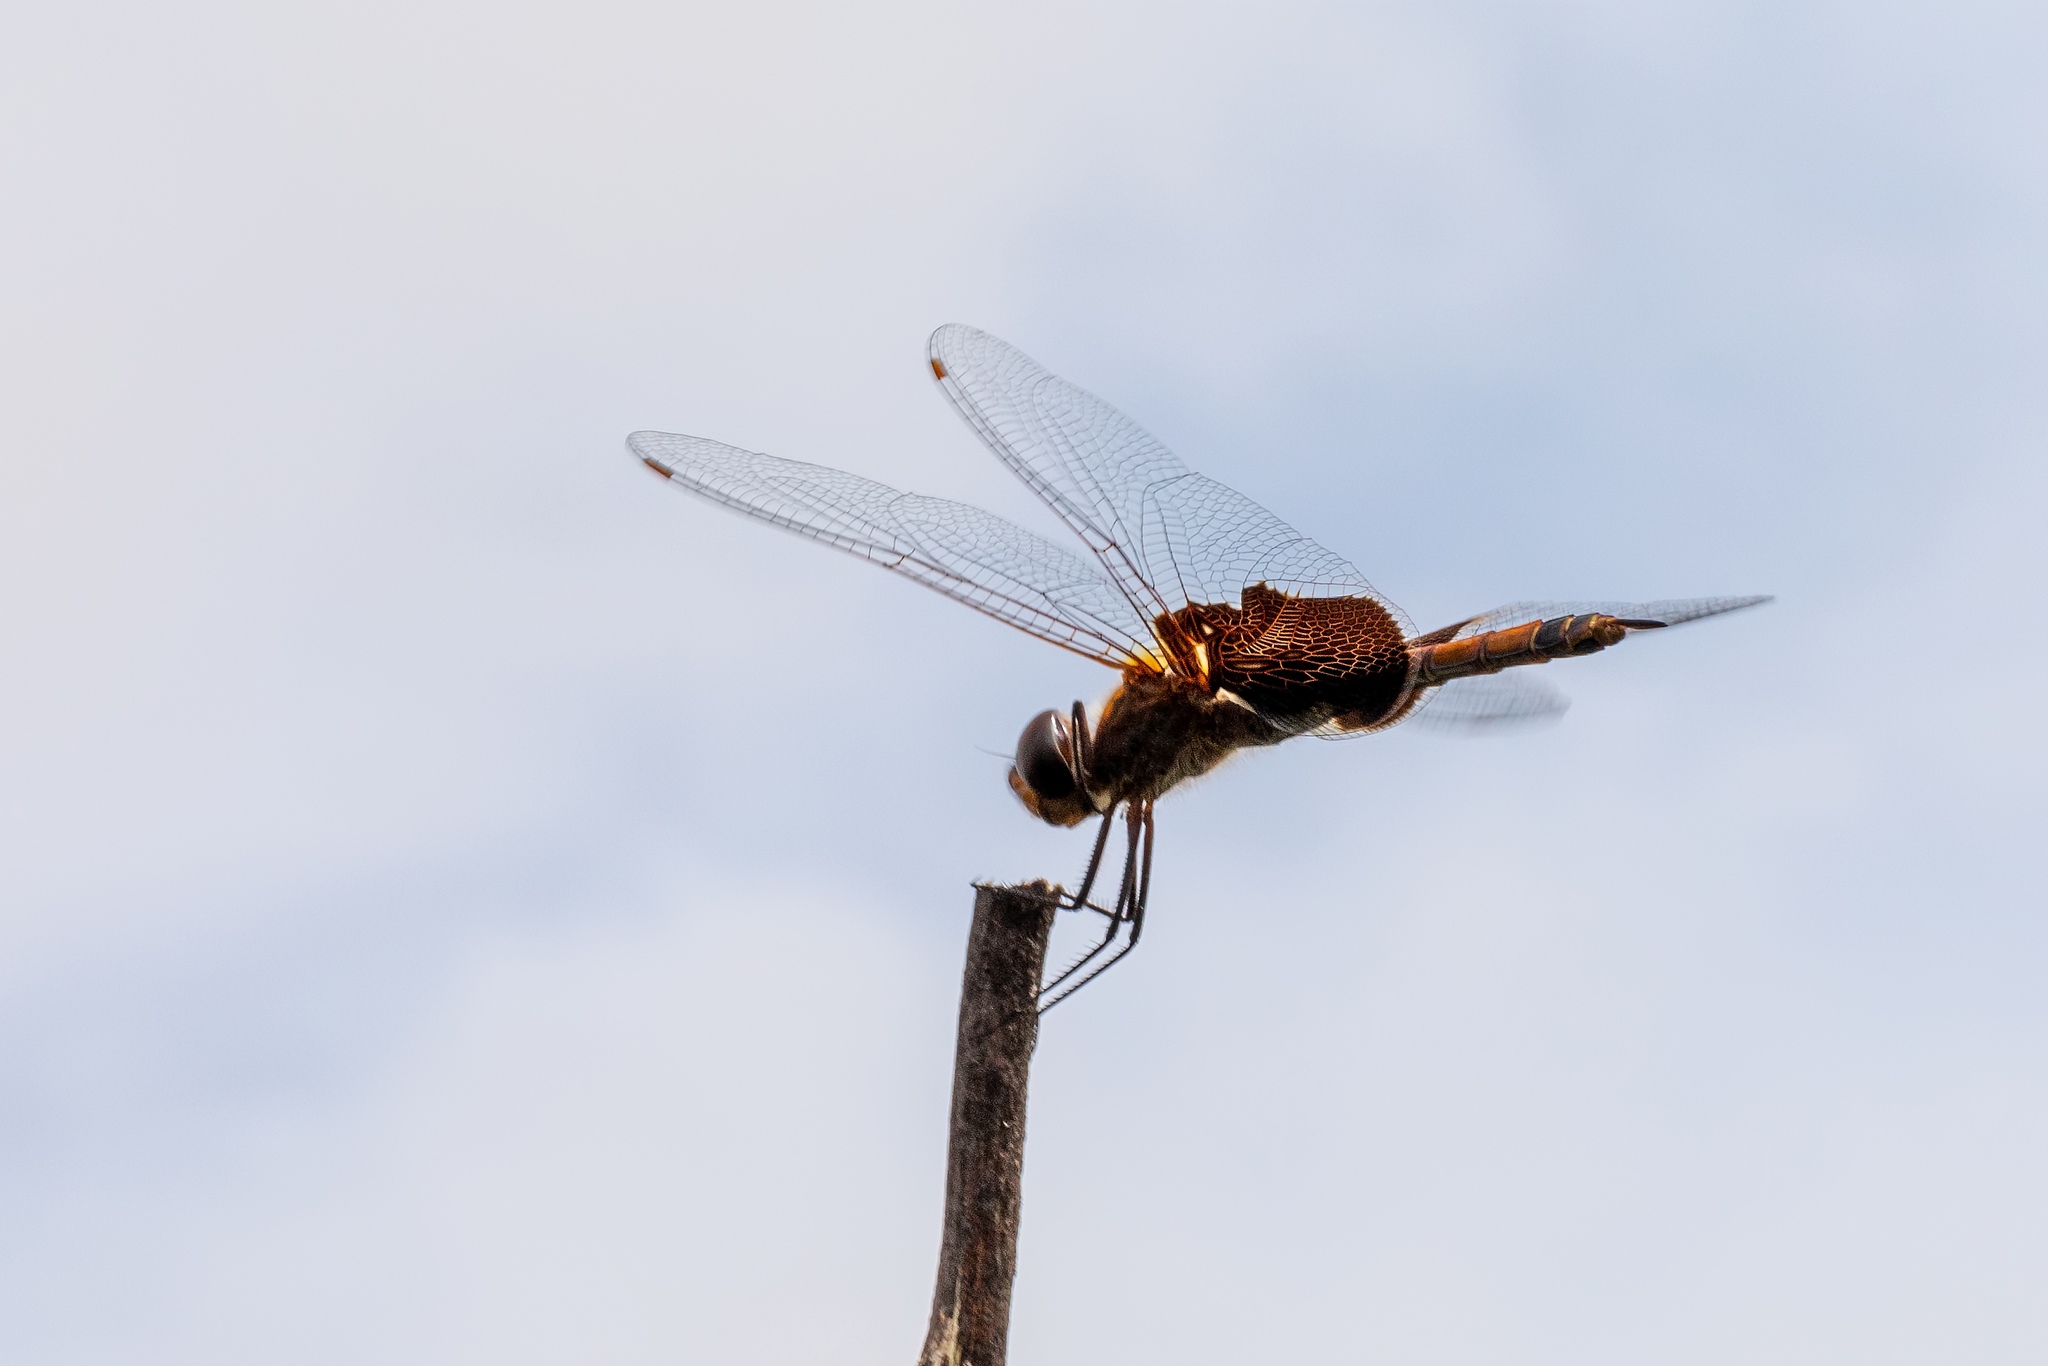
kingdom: Animalia
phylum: Arthropoda
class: Insecta
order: Odonata
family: Libellulidae
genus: Tramea
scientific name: Tramea carolina
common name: Carolina saddlebags
